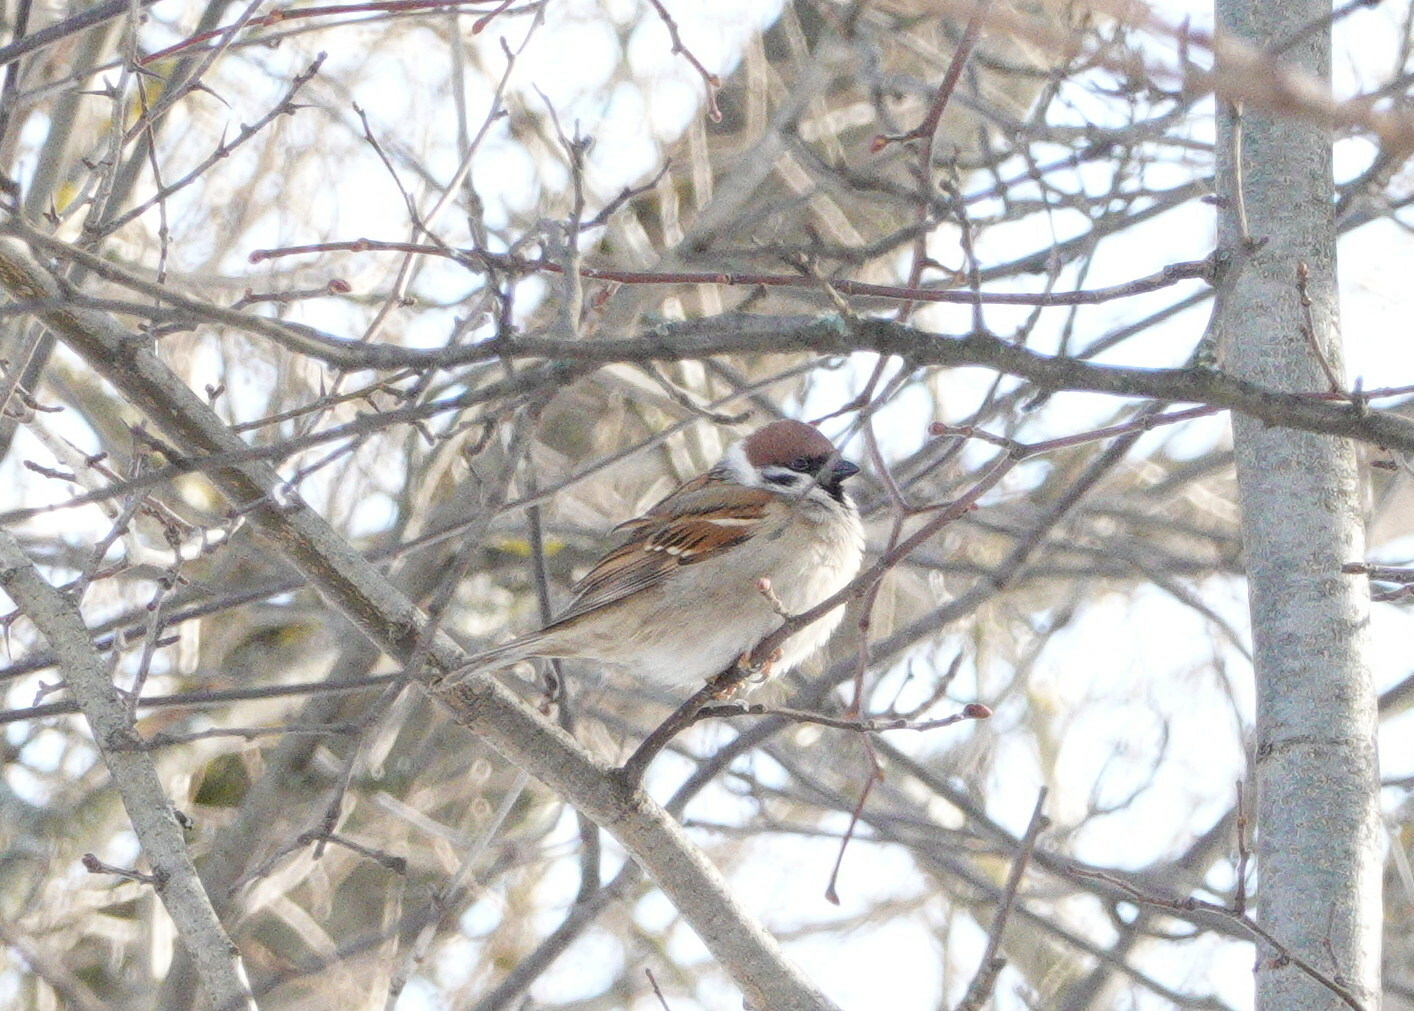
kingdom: Animalia
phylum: Chordata
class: Aves
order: Passeriformes
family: Passeridae
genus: Passer
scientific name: Passer montanus
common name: Eurasian tree sparrow
